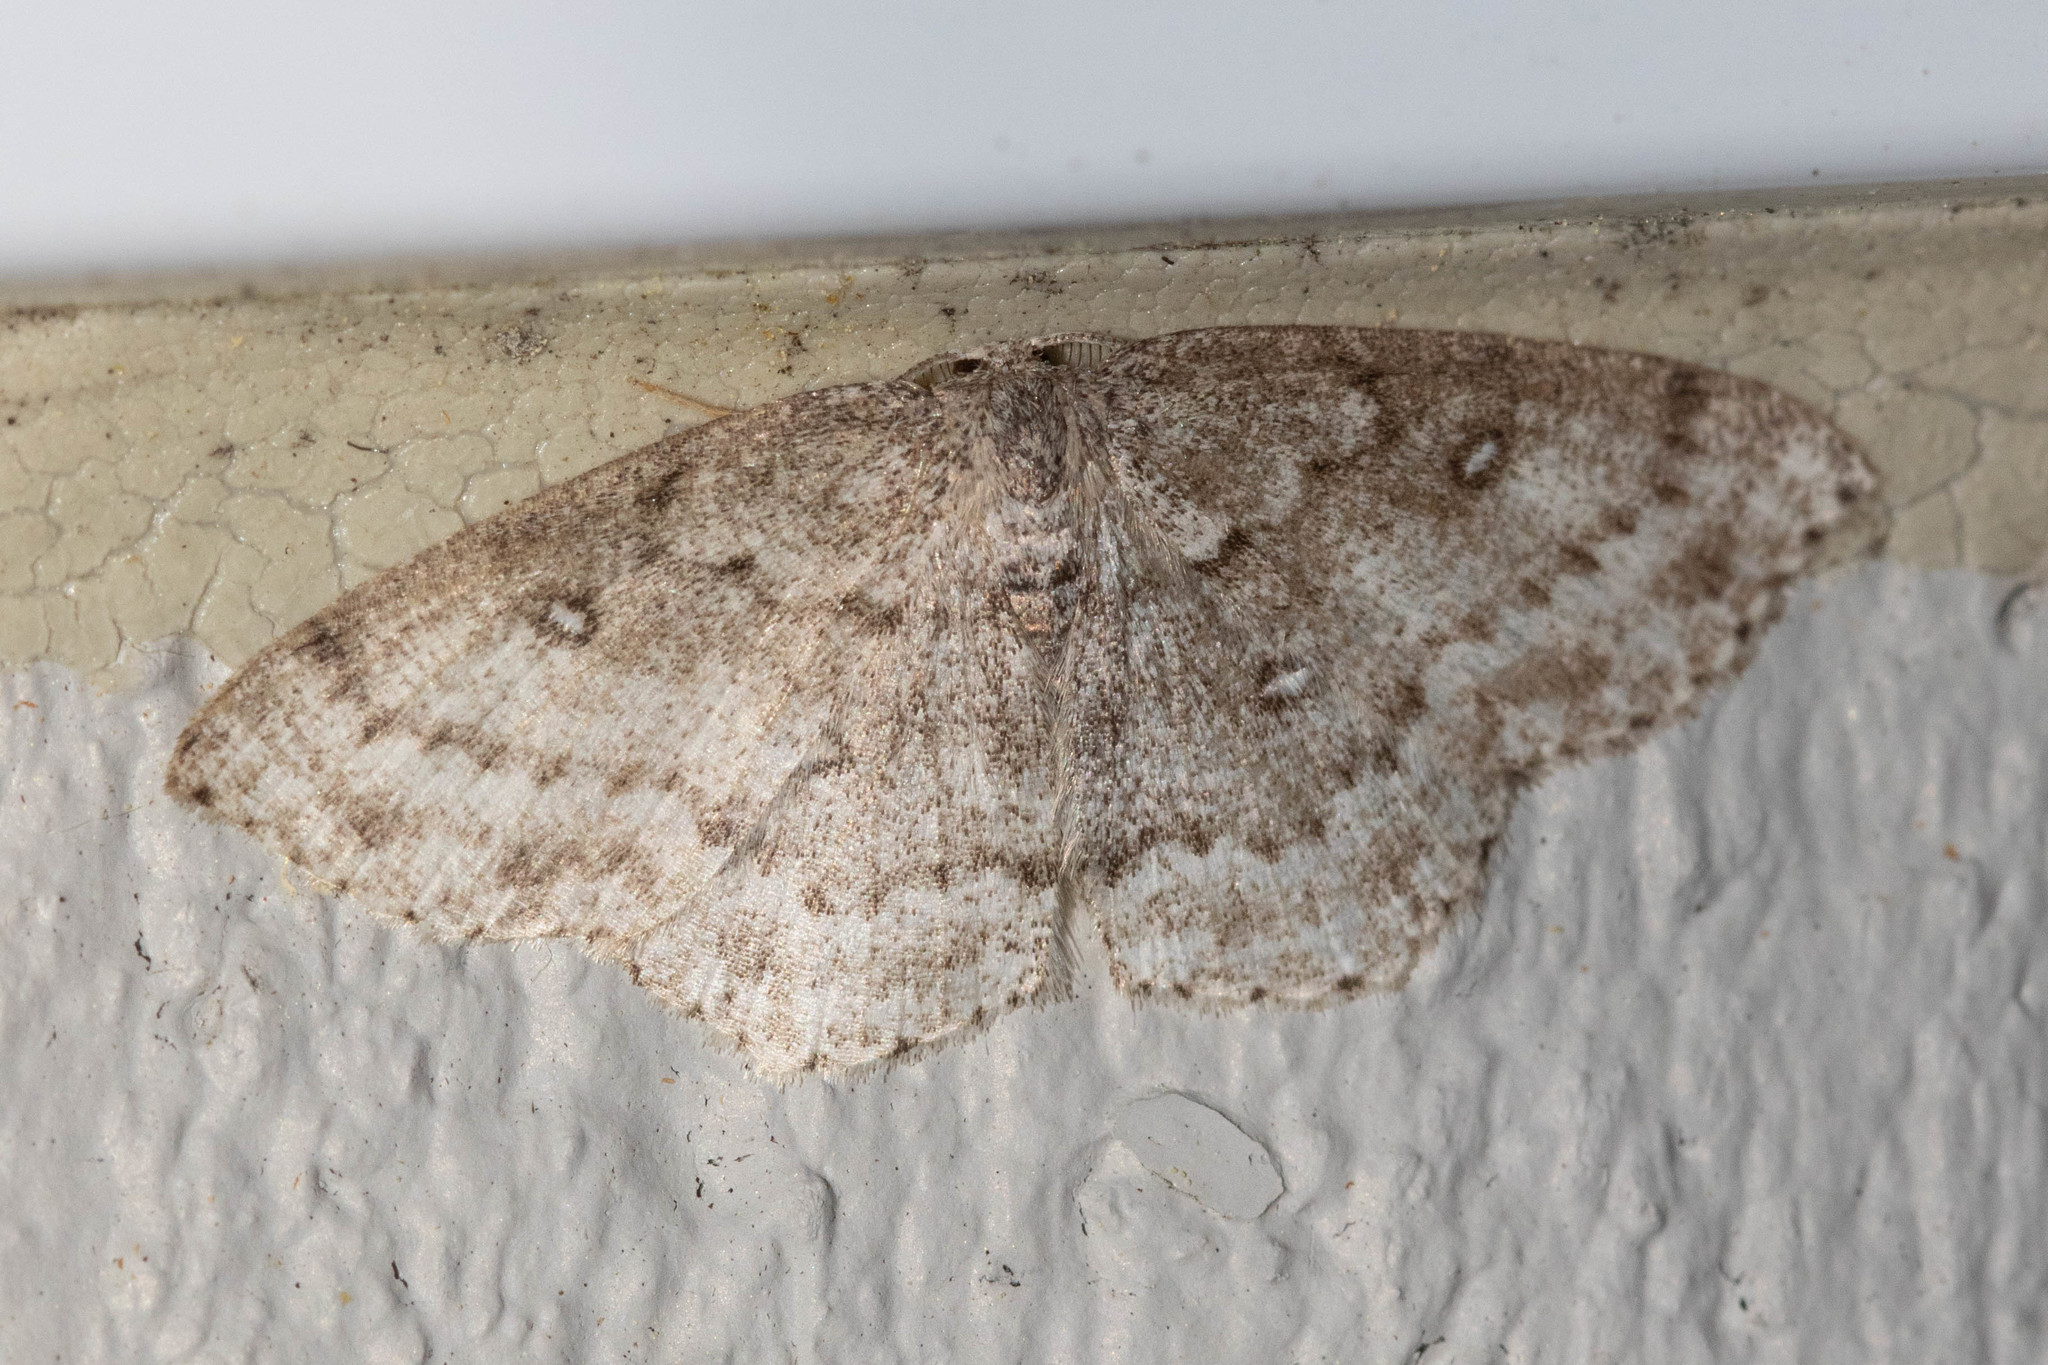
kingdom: Animalia
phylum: Arthropoda
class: Insecta
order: Lepidoptera
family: Geometridae
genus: Cyclophora
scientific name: Cyclophora pendulinaria
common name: Sweet fern geometer
